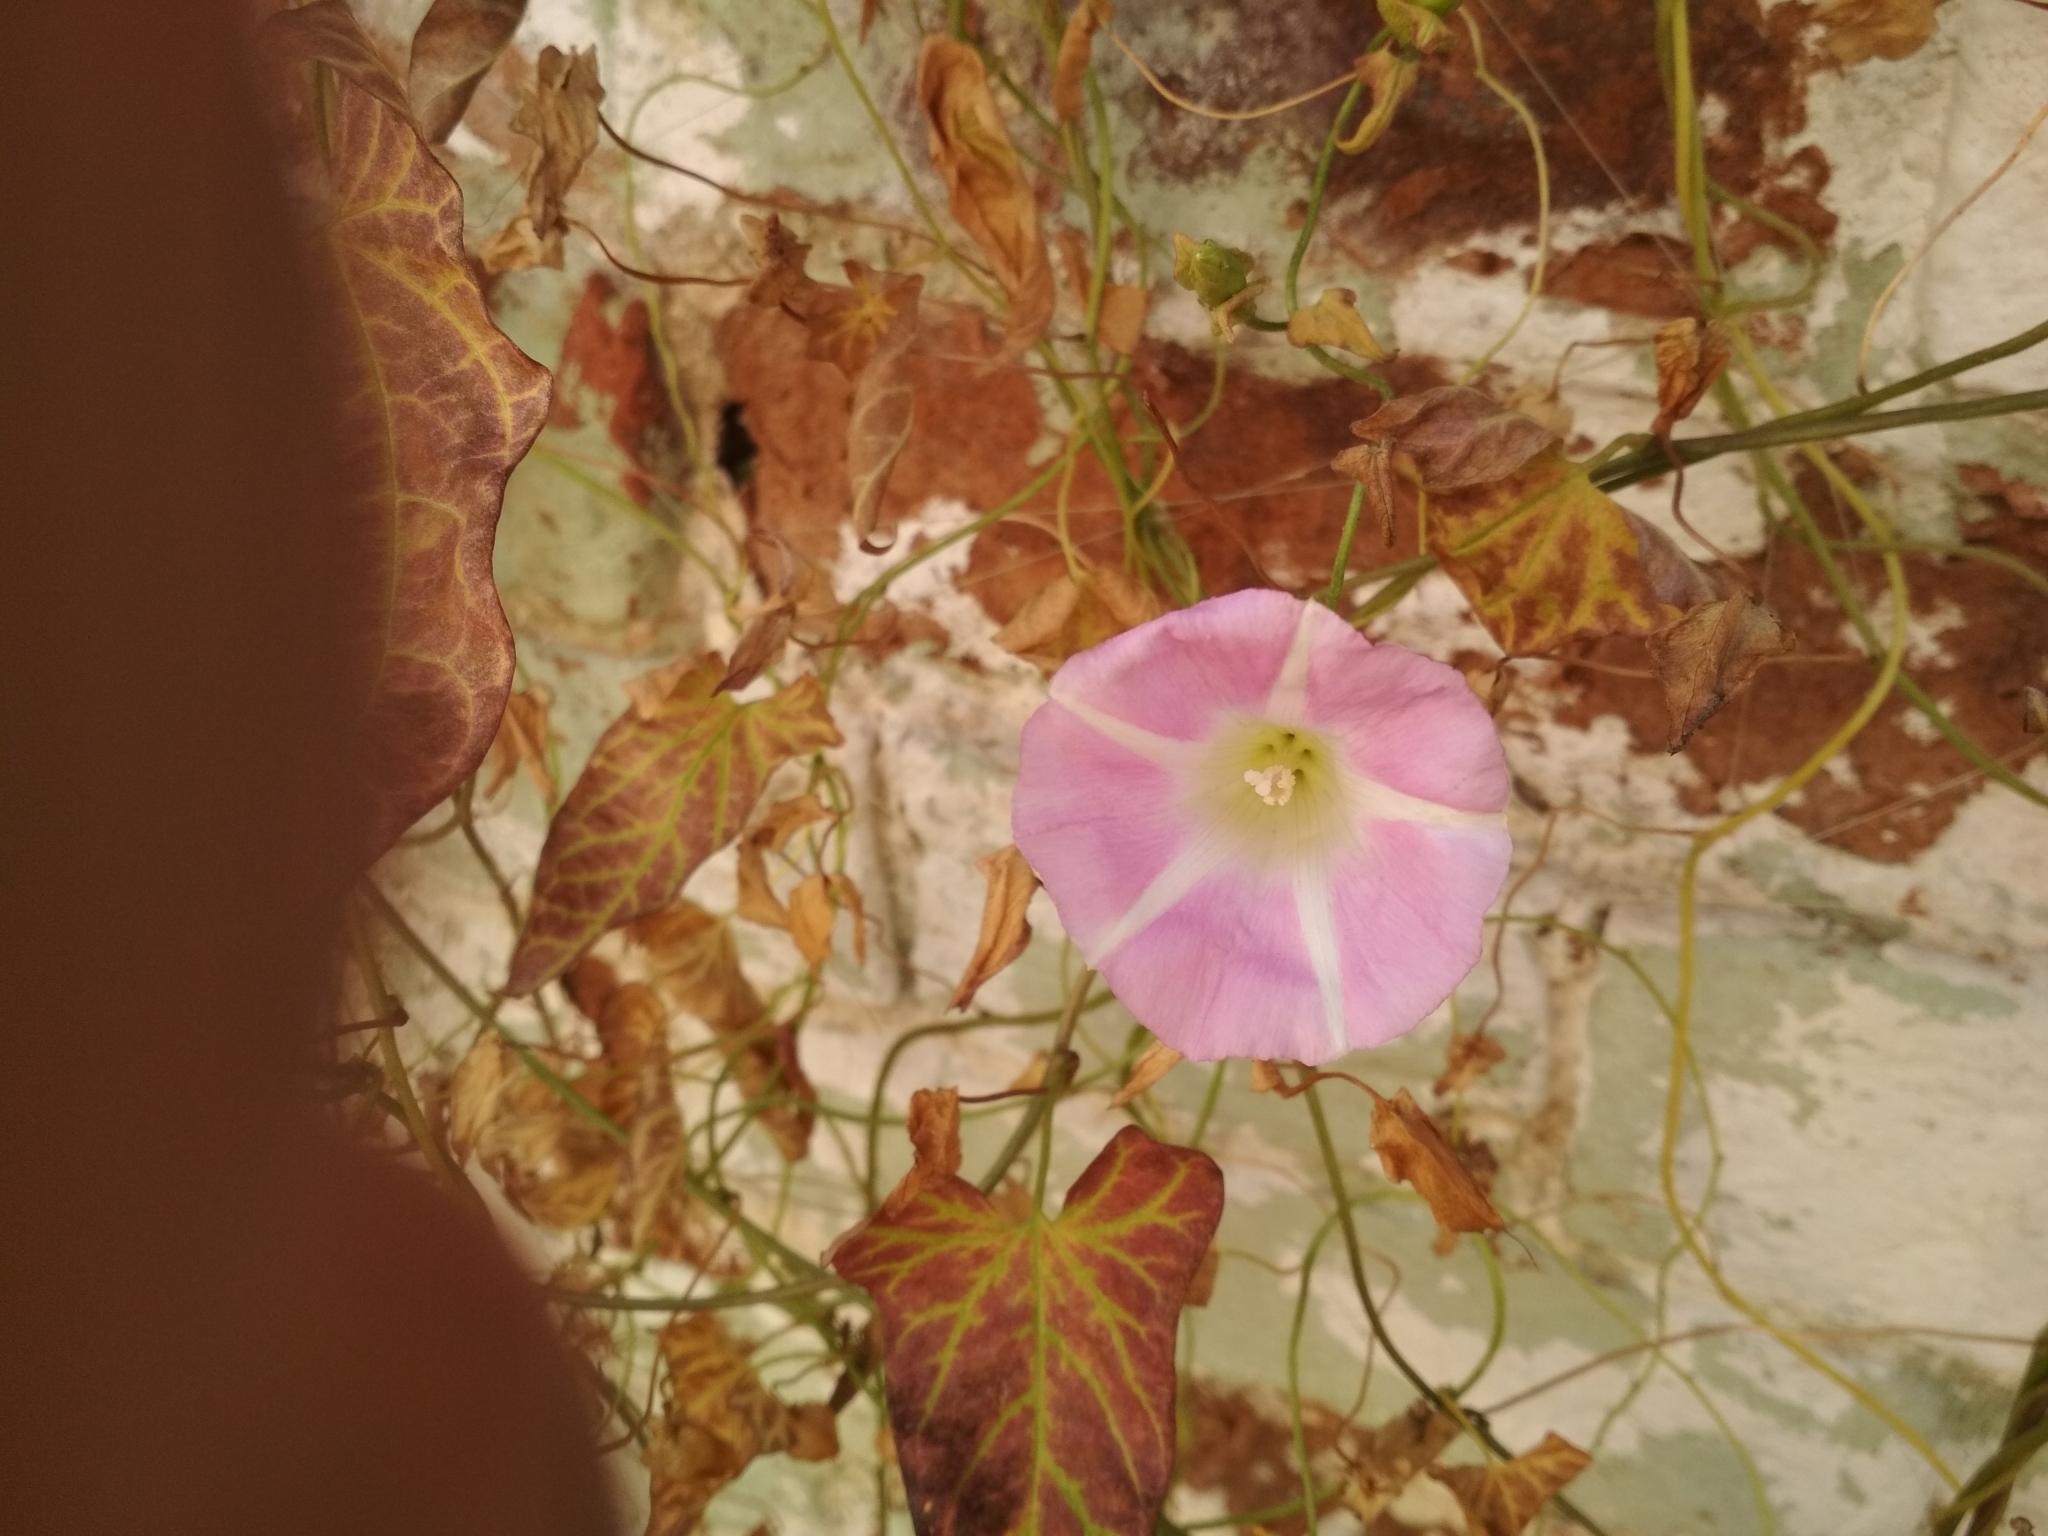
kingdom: Plantae
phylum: Tracheophyta
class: Magnoliopsida
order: Solanales
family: Convolvulaceae
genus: Calystegia
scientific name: Calystegia sepium
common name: Hedge bindweed
